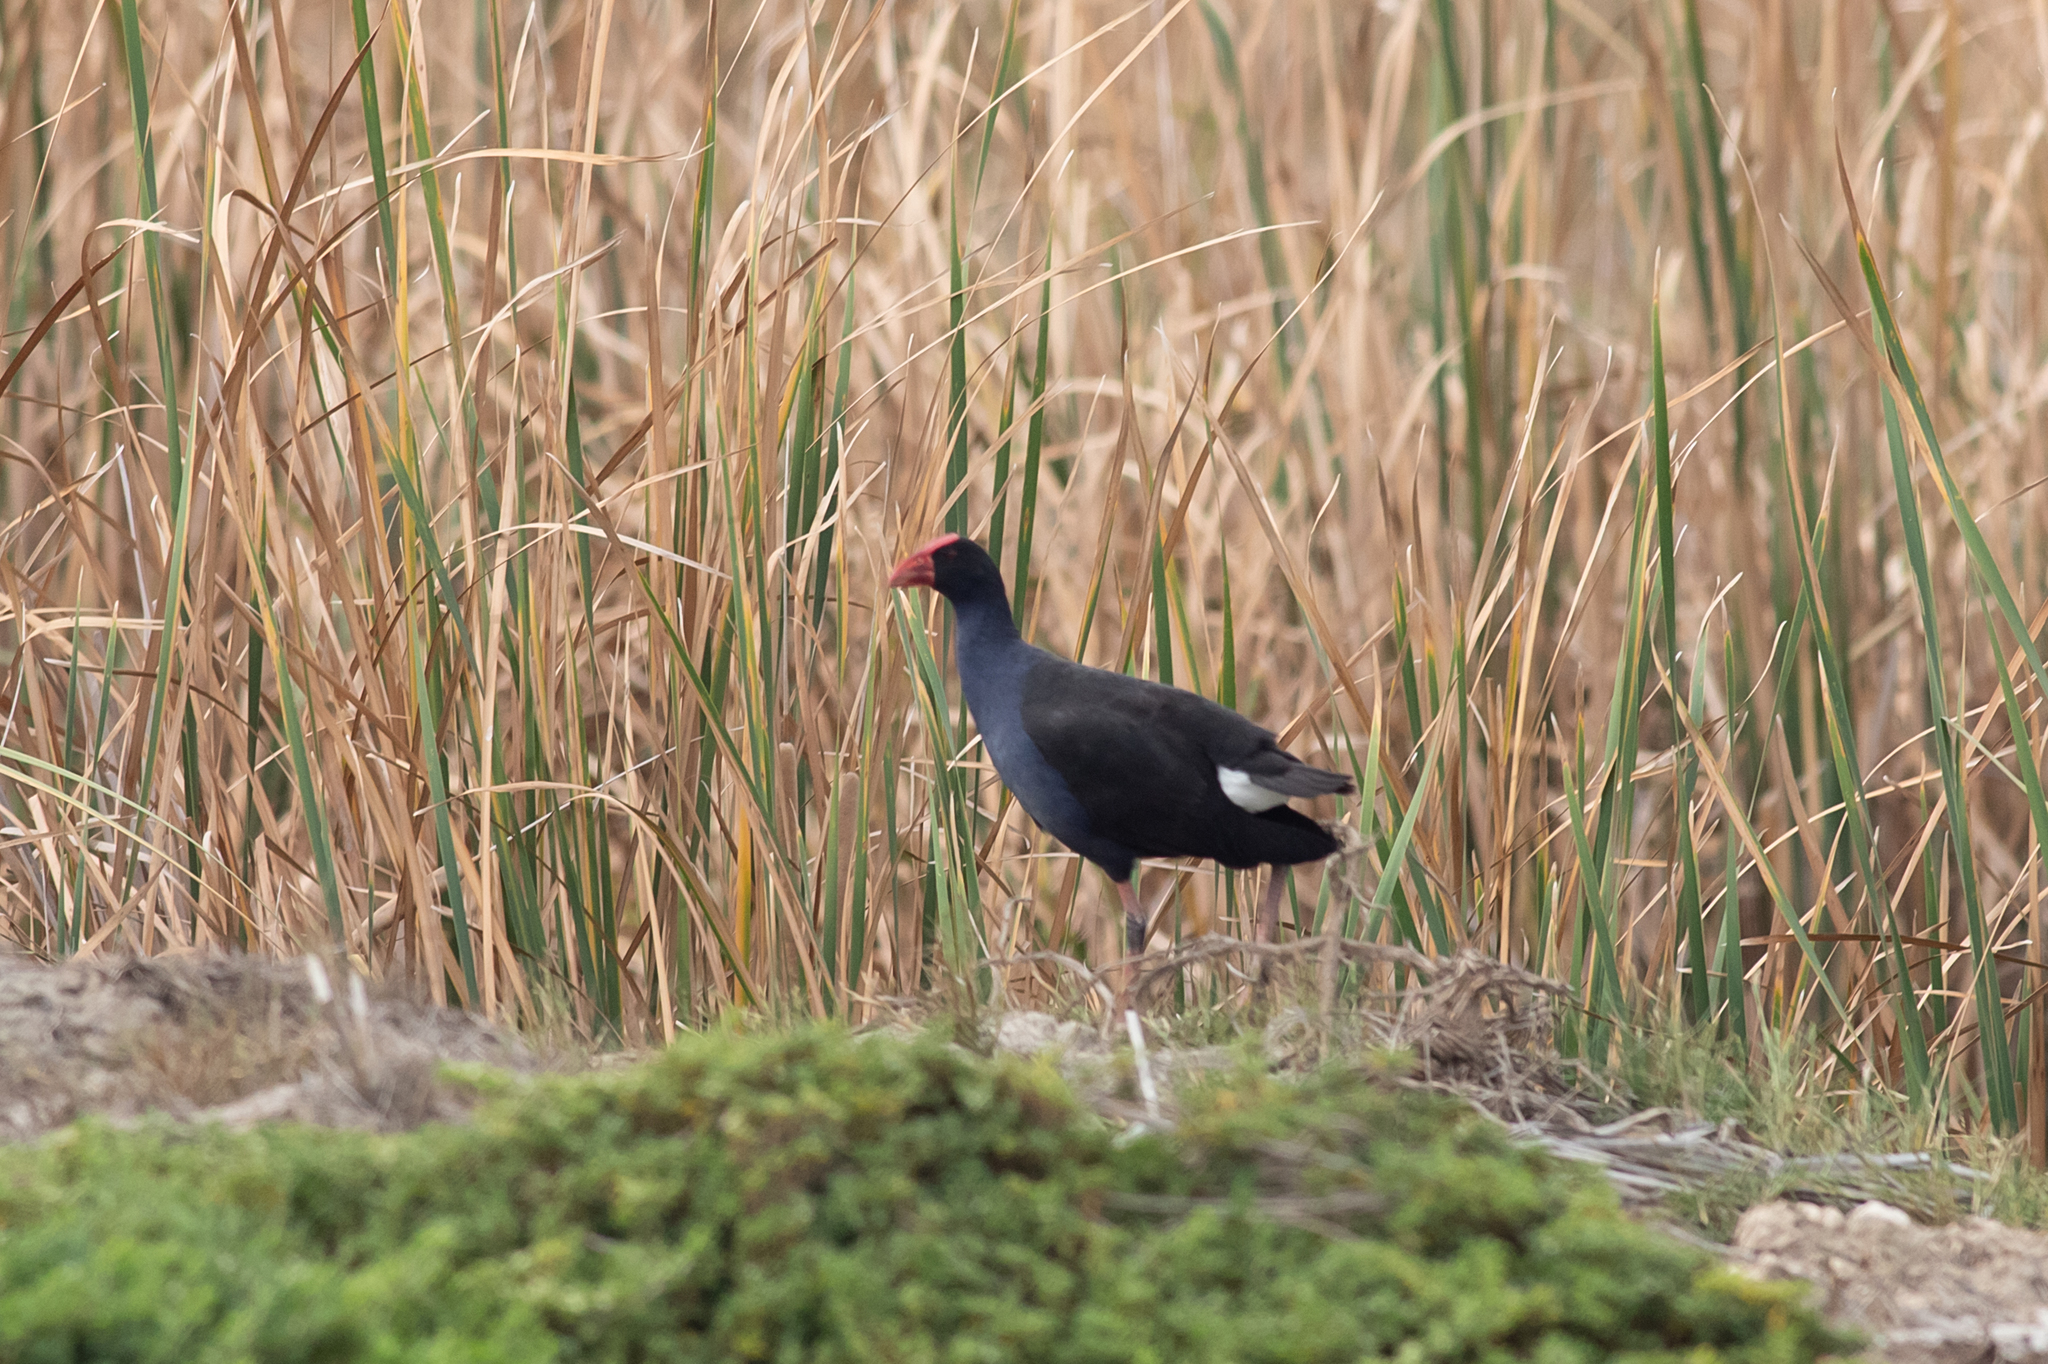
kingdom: Animalia
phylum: Chordata
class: Aves
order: Gruiformes
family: Rallidae
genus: Porphyrio
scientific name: Porphyrio melanotus
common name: Australasian swamphen
